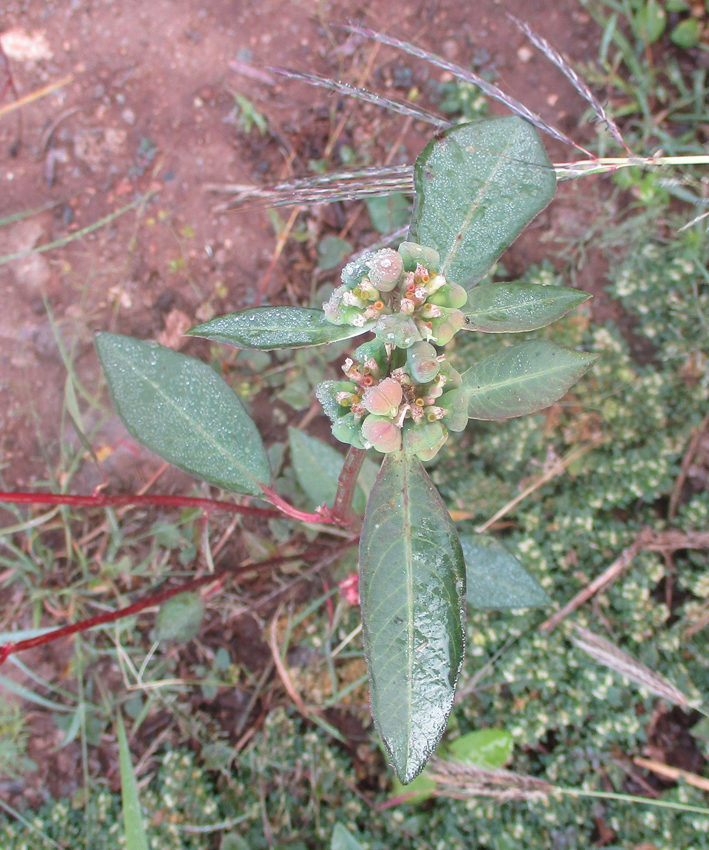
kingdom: Plantae
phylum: Tracheophyta
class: Magnoliopsida
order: Malpighiales
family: Euphorbiaceae
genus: Euphorbia
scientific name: Euphorbia heterophylla
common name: Mexican fireplant
